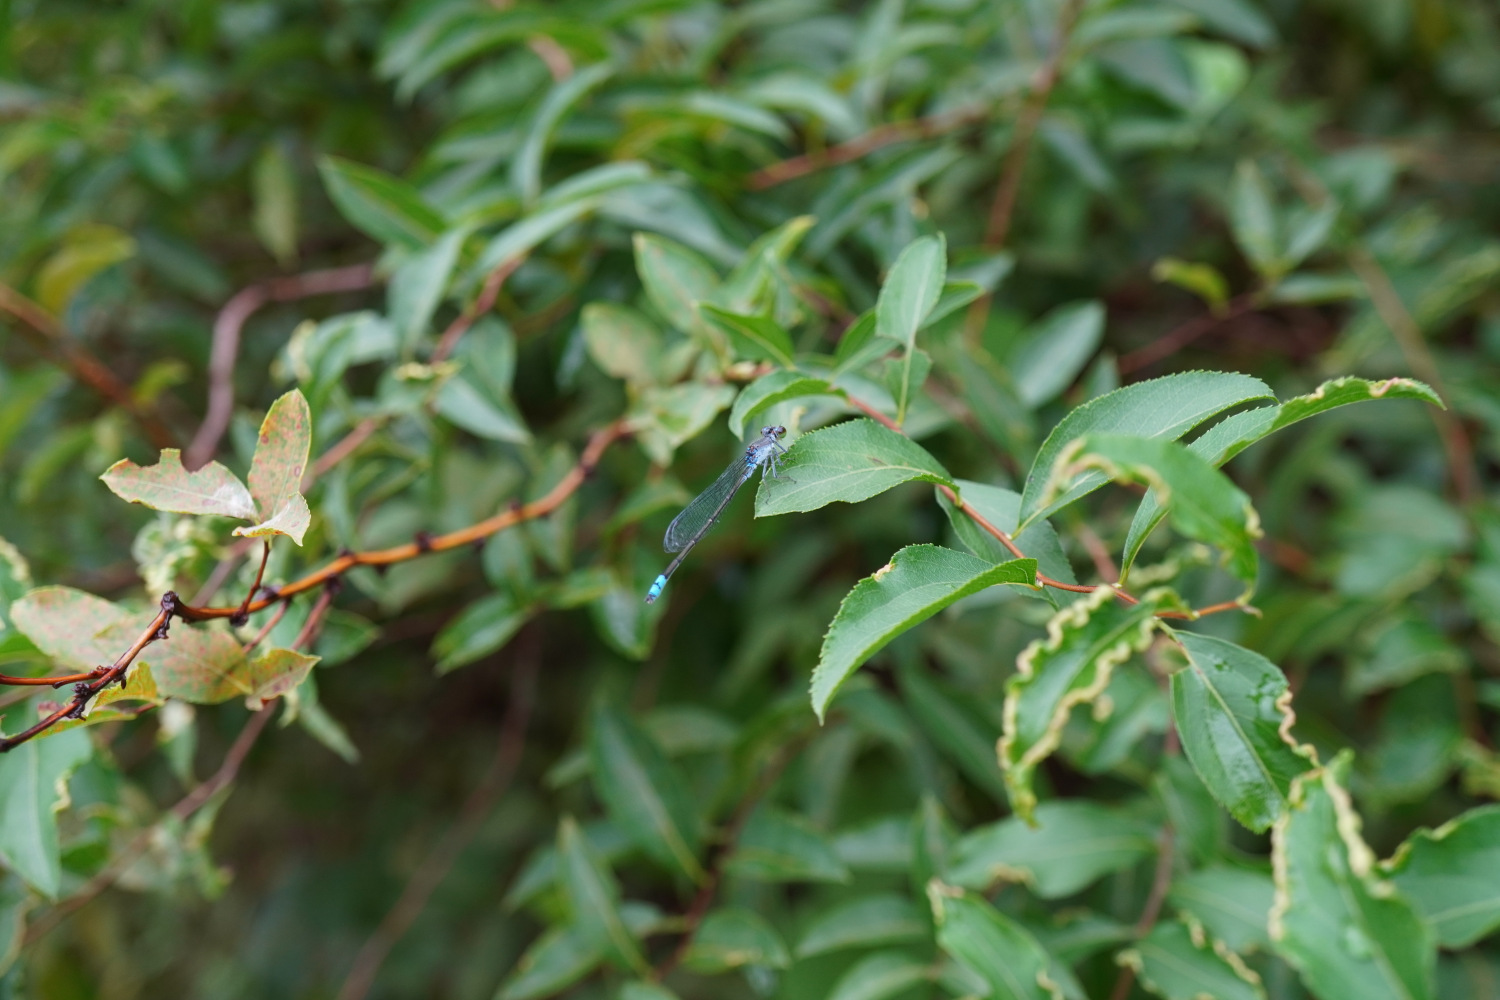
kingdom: Animalia
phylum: Arthropoda
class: Insecta
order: Odonata
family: Coenagrionidae
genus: Paracercion
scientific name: Paracercion calamorum
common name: Dusky lilysquatter
